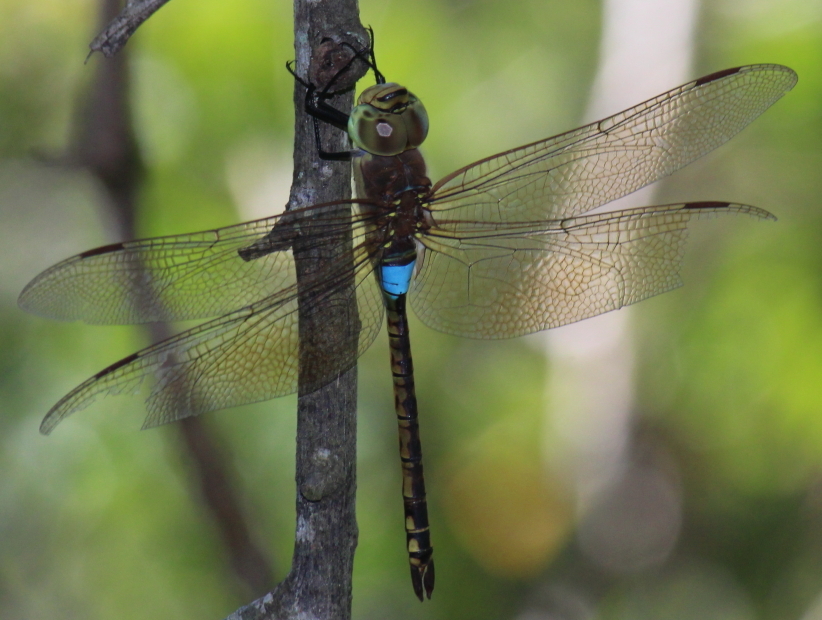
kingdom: Animalia
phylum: Arthropoda
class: Insecta
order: Odonata
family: Aeshnidae
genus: Anax
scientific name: Anax ephippiger
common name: Vagrant emperor
